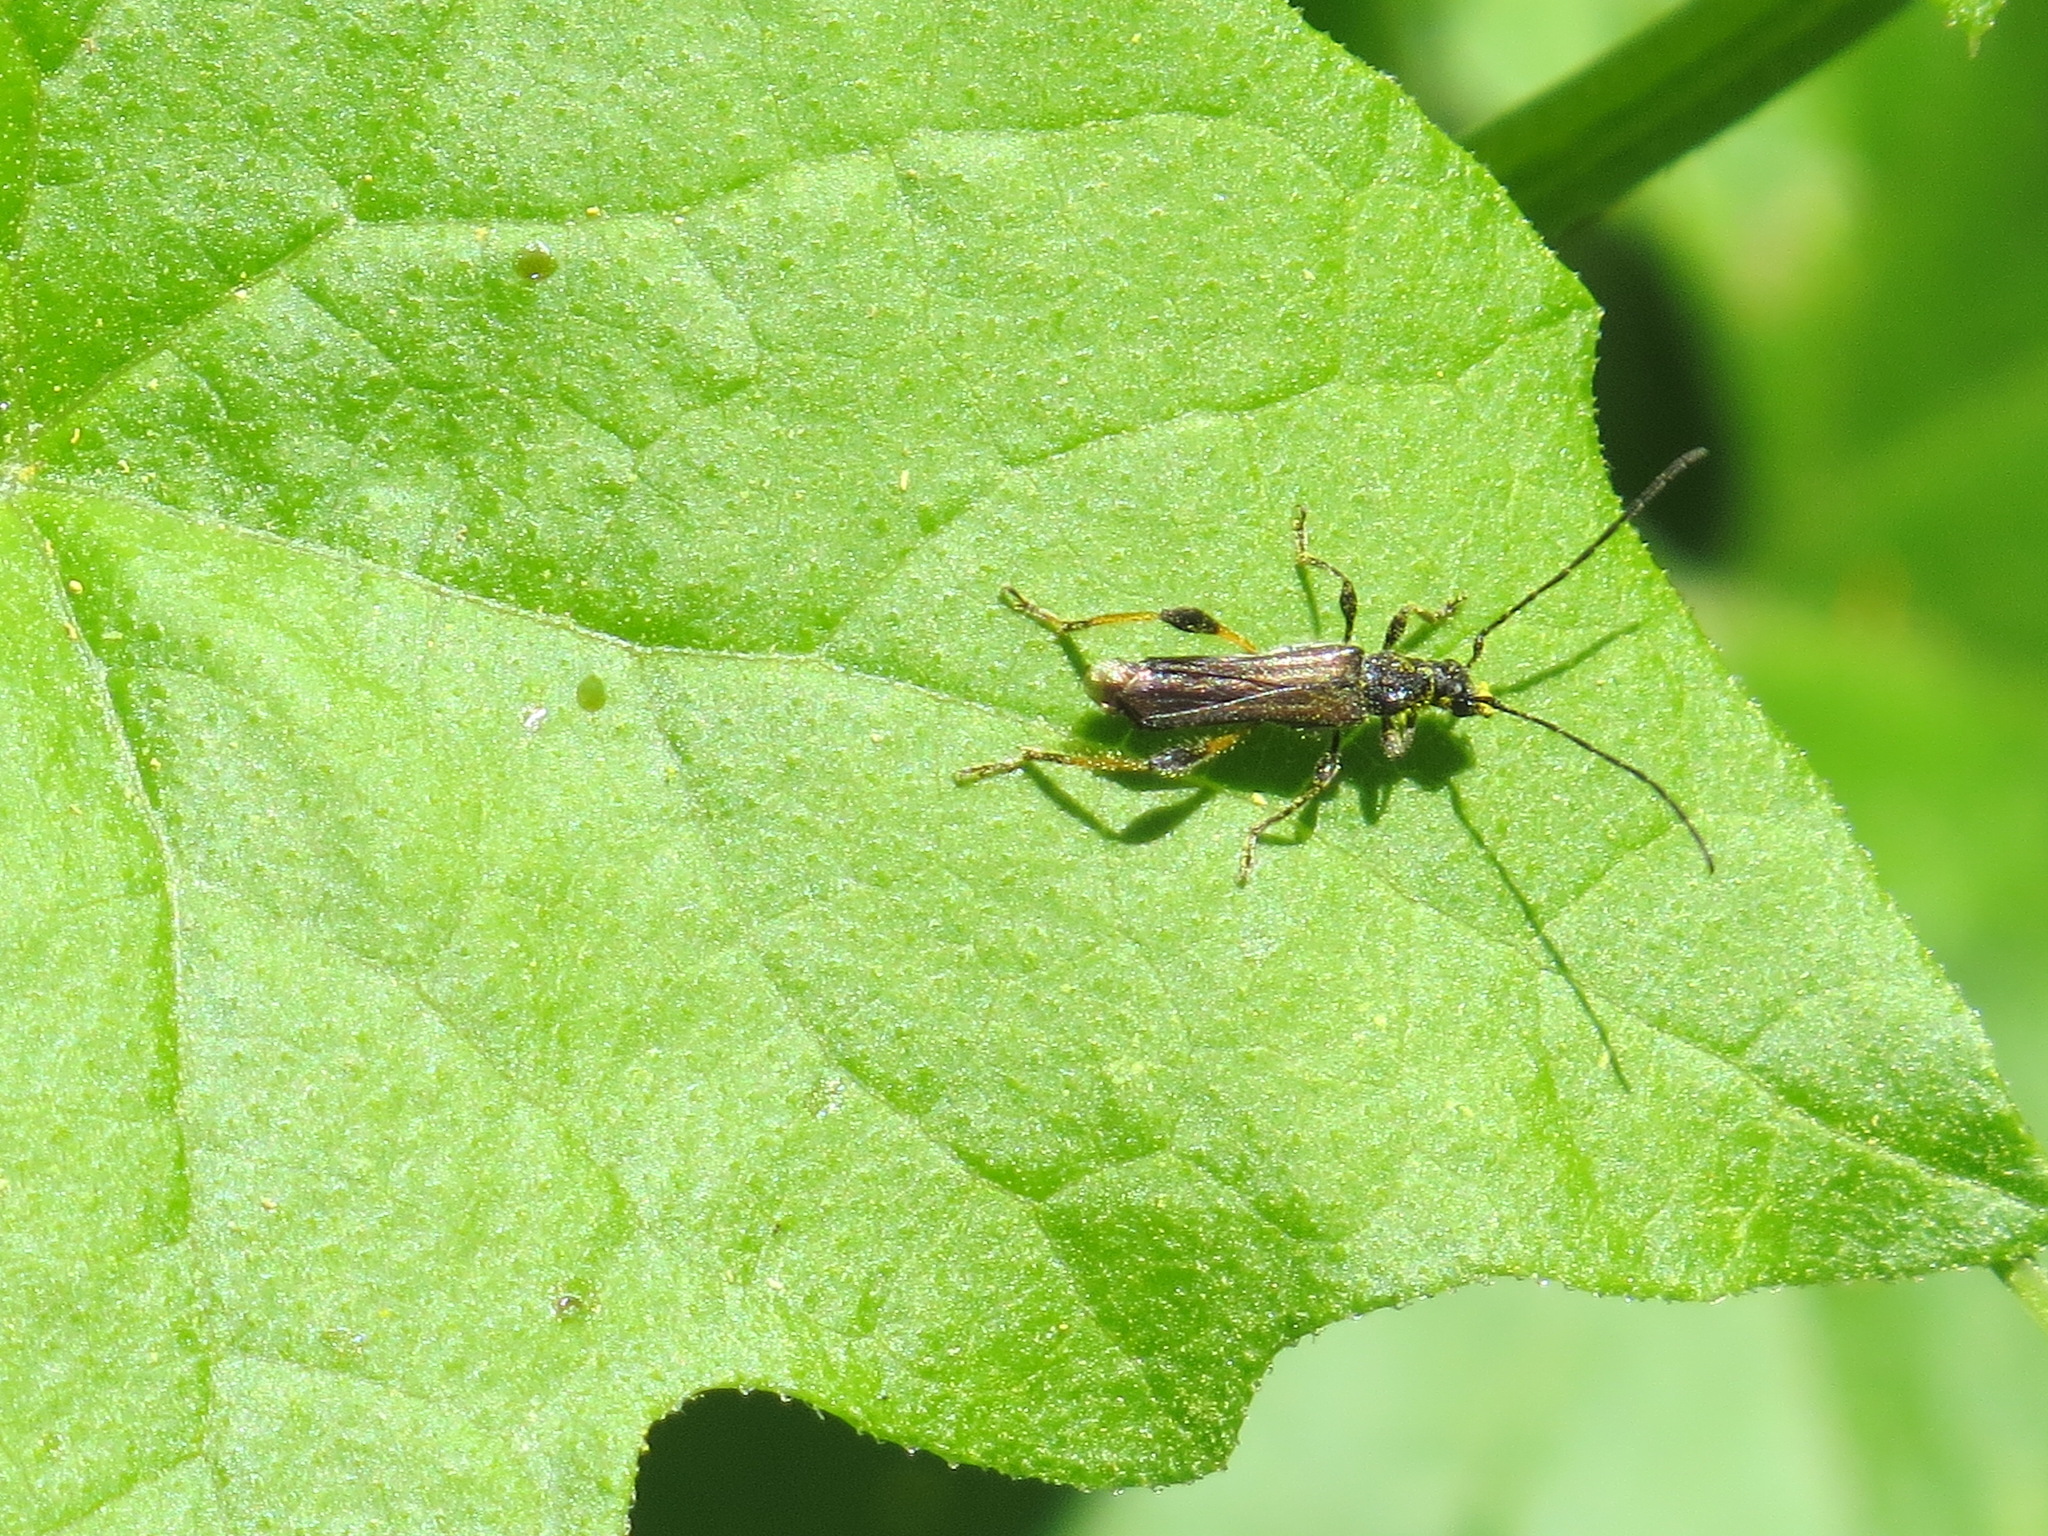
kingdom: Animalia
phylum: Arthropoda
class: Insecta
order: Coleoptera
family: Cerambycidae
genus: Callimoxys
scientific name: Callimoxys fuscipennis
